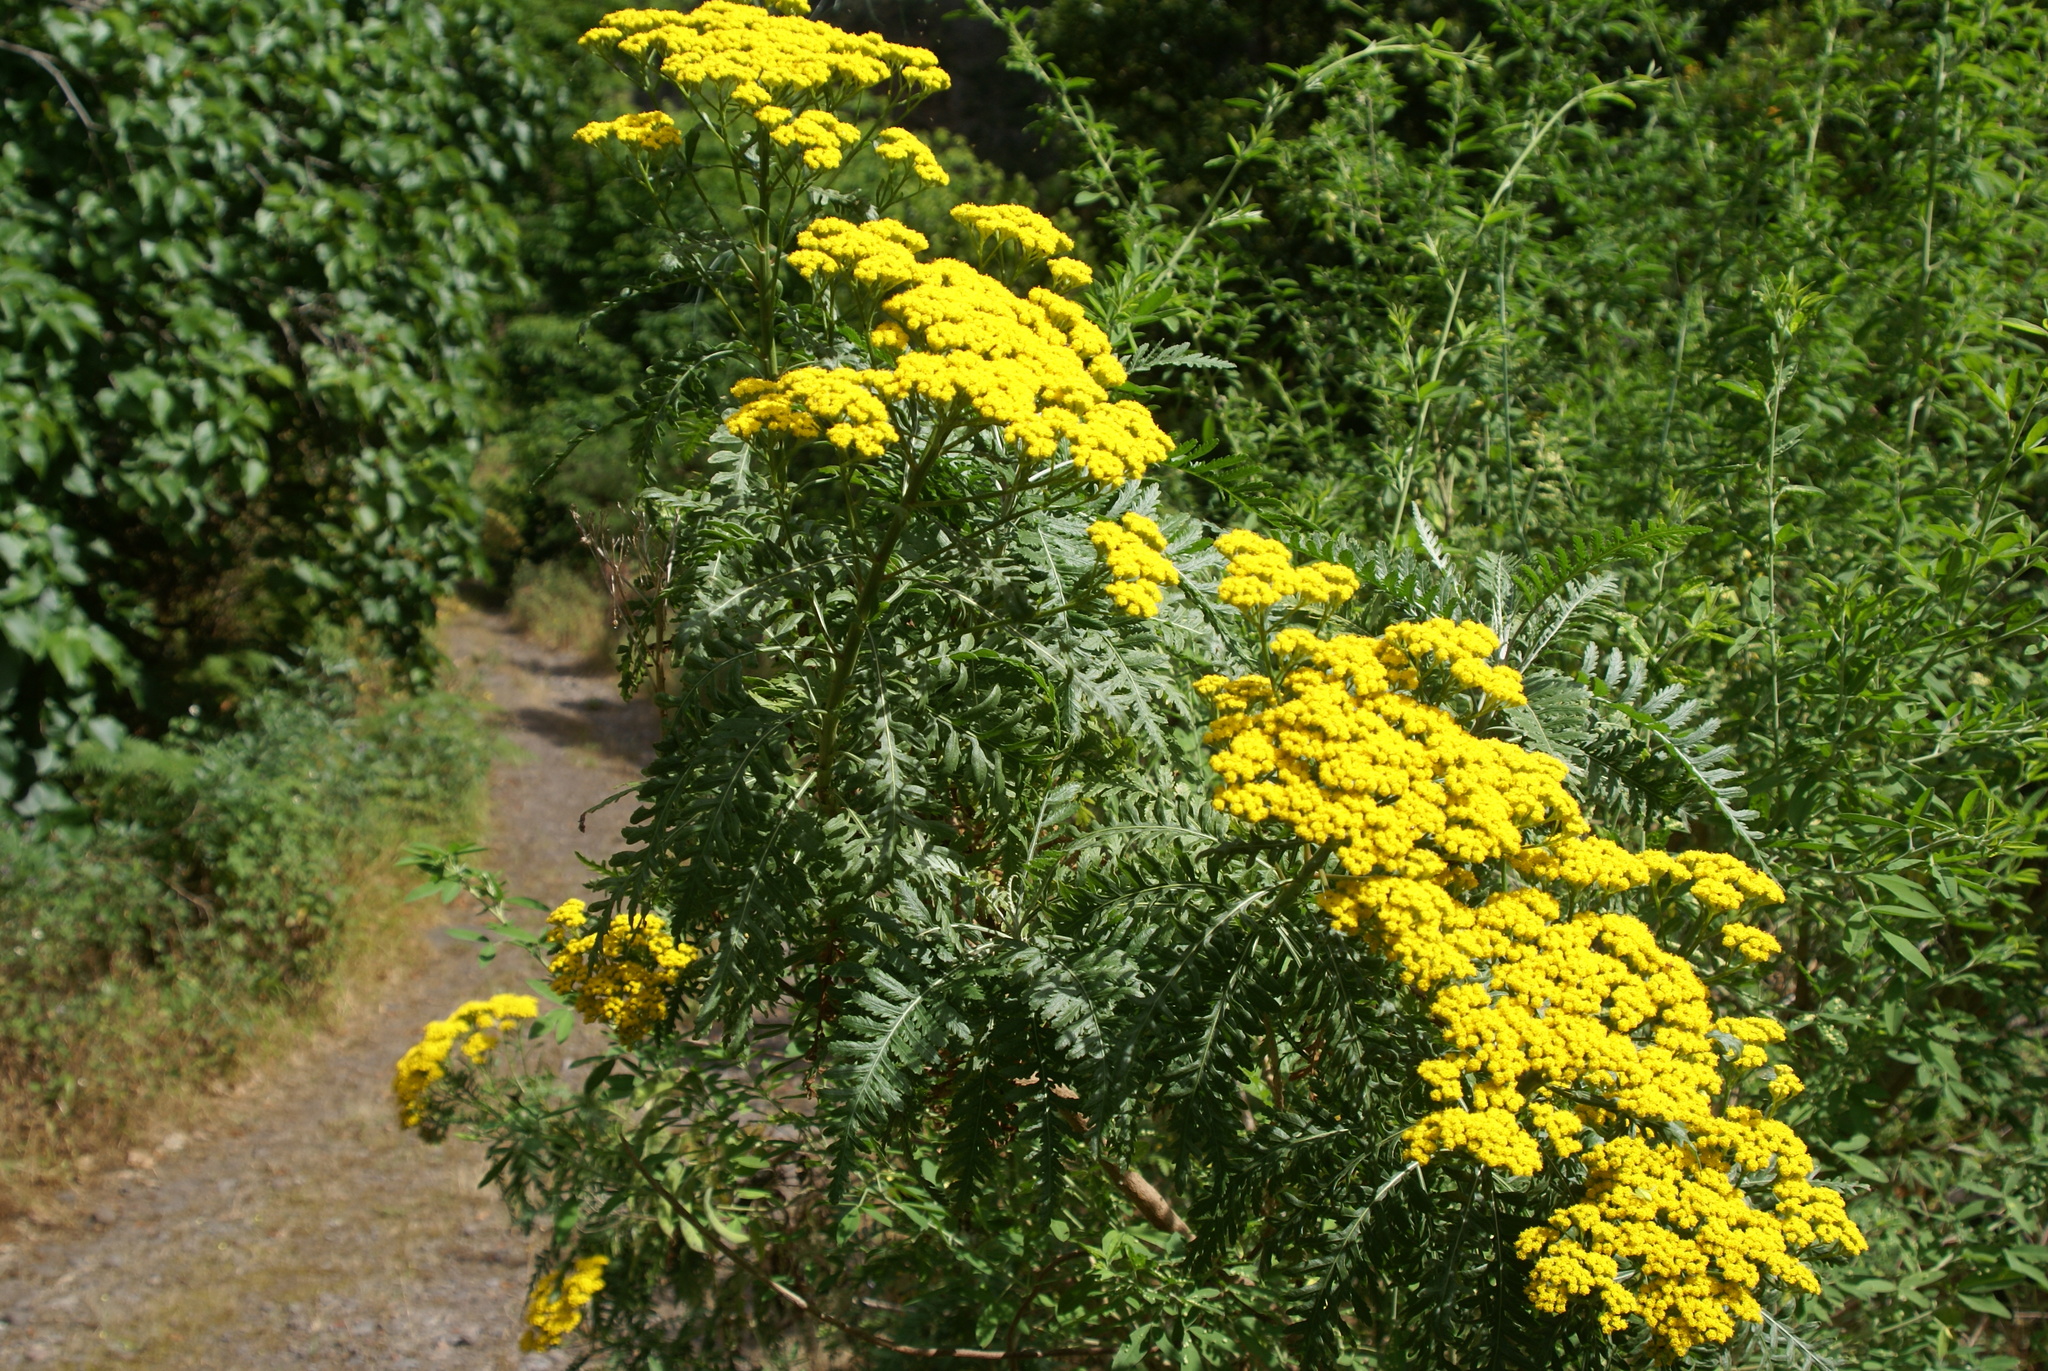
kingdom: Plantae
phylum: Tracheophyta
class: Magnoliopsida
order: Asterales
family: Asteraceae
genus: Gonospermum
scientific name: Gonospermum canariense
